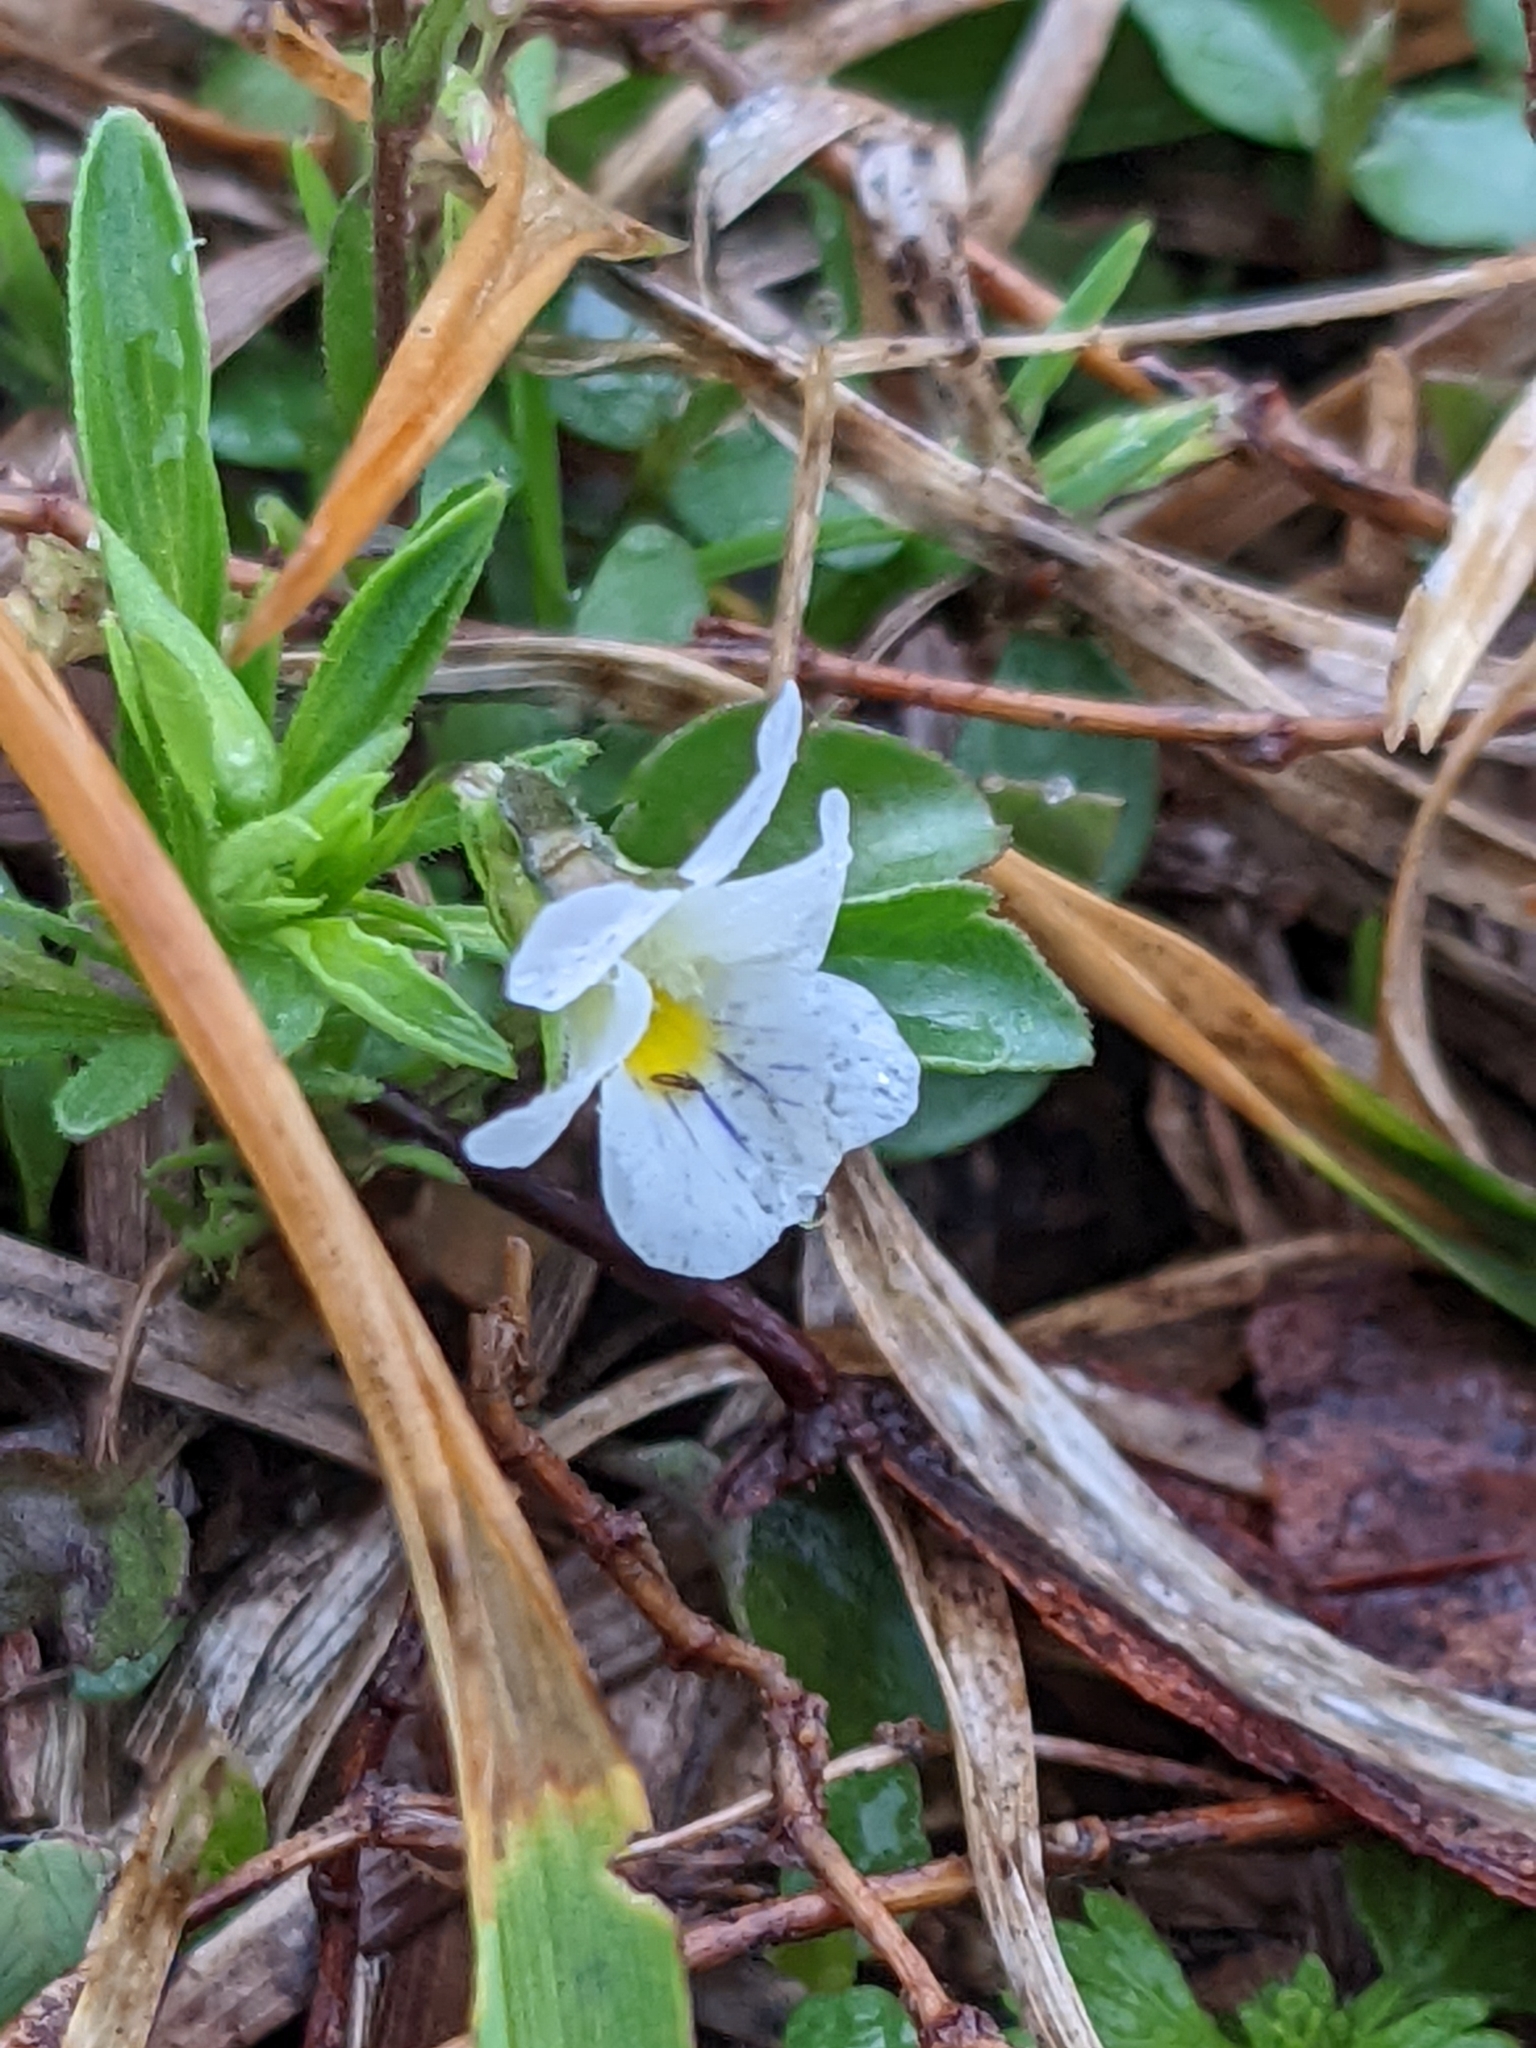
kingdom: Plantae
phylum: Tracheophyta
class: Magnoliopsida
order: Malpighiales
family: Violaceae
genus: Viola
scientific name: Viola rafinesquei
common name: American field pansy
